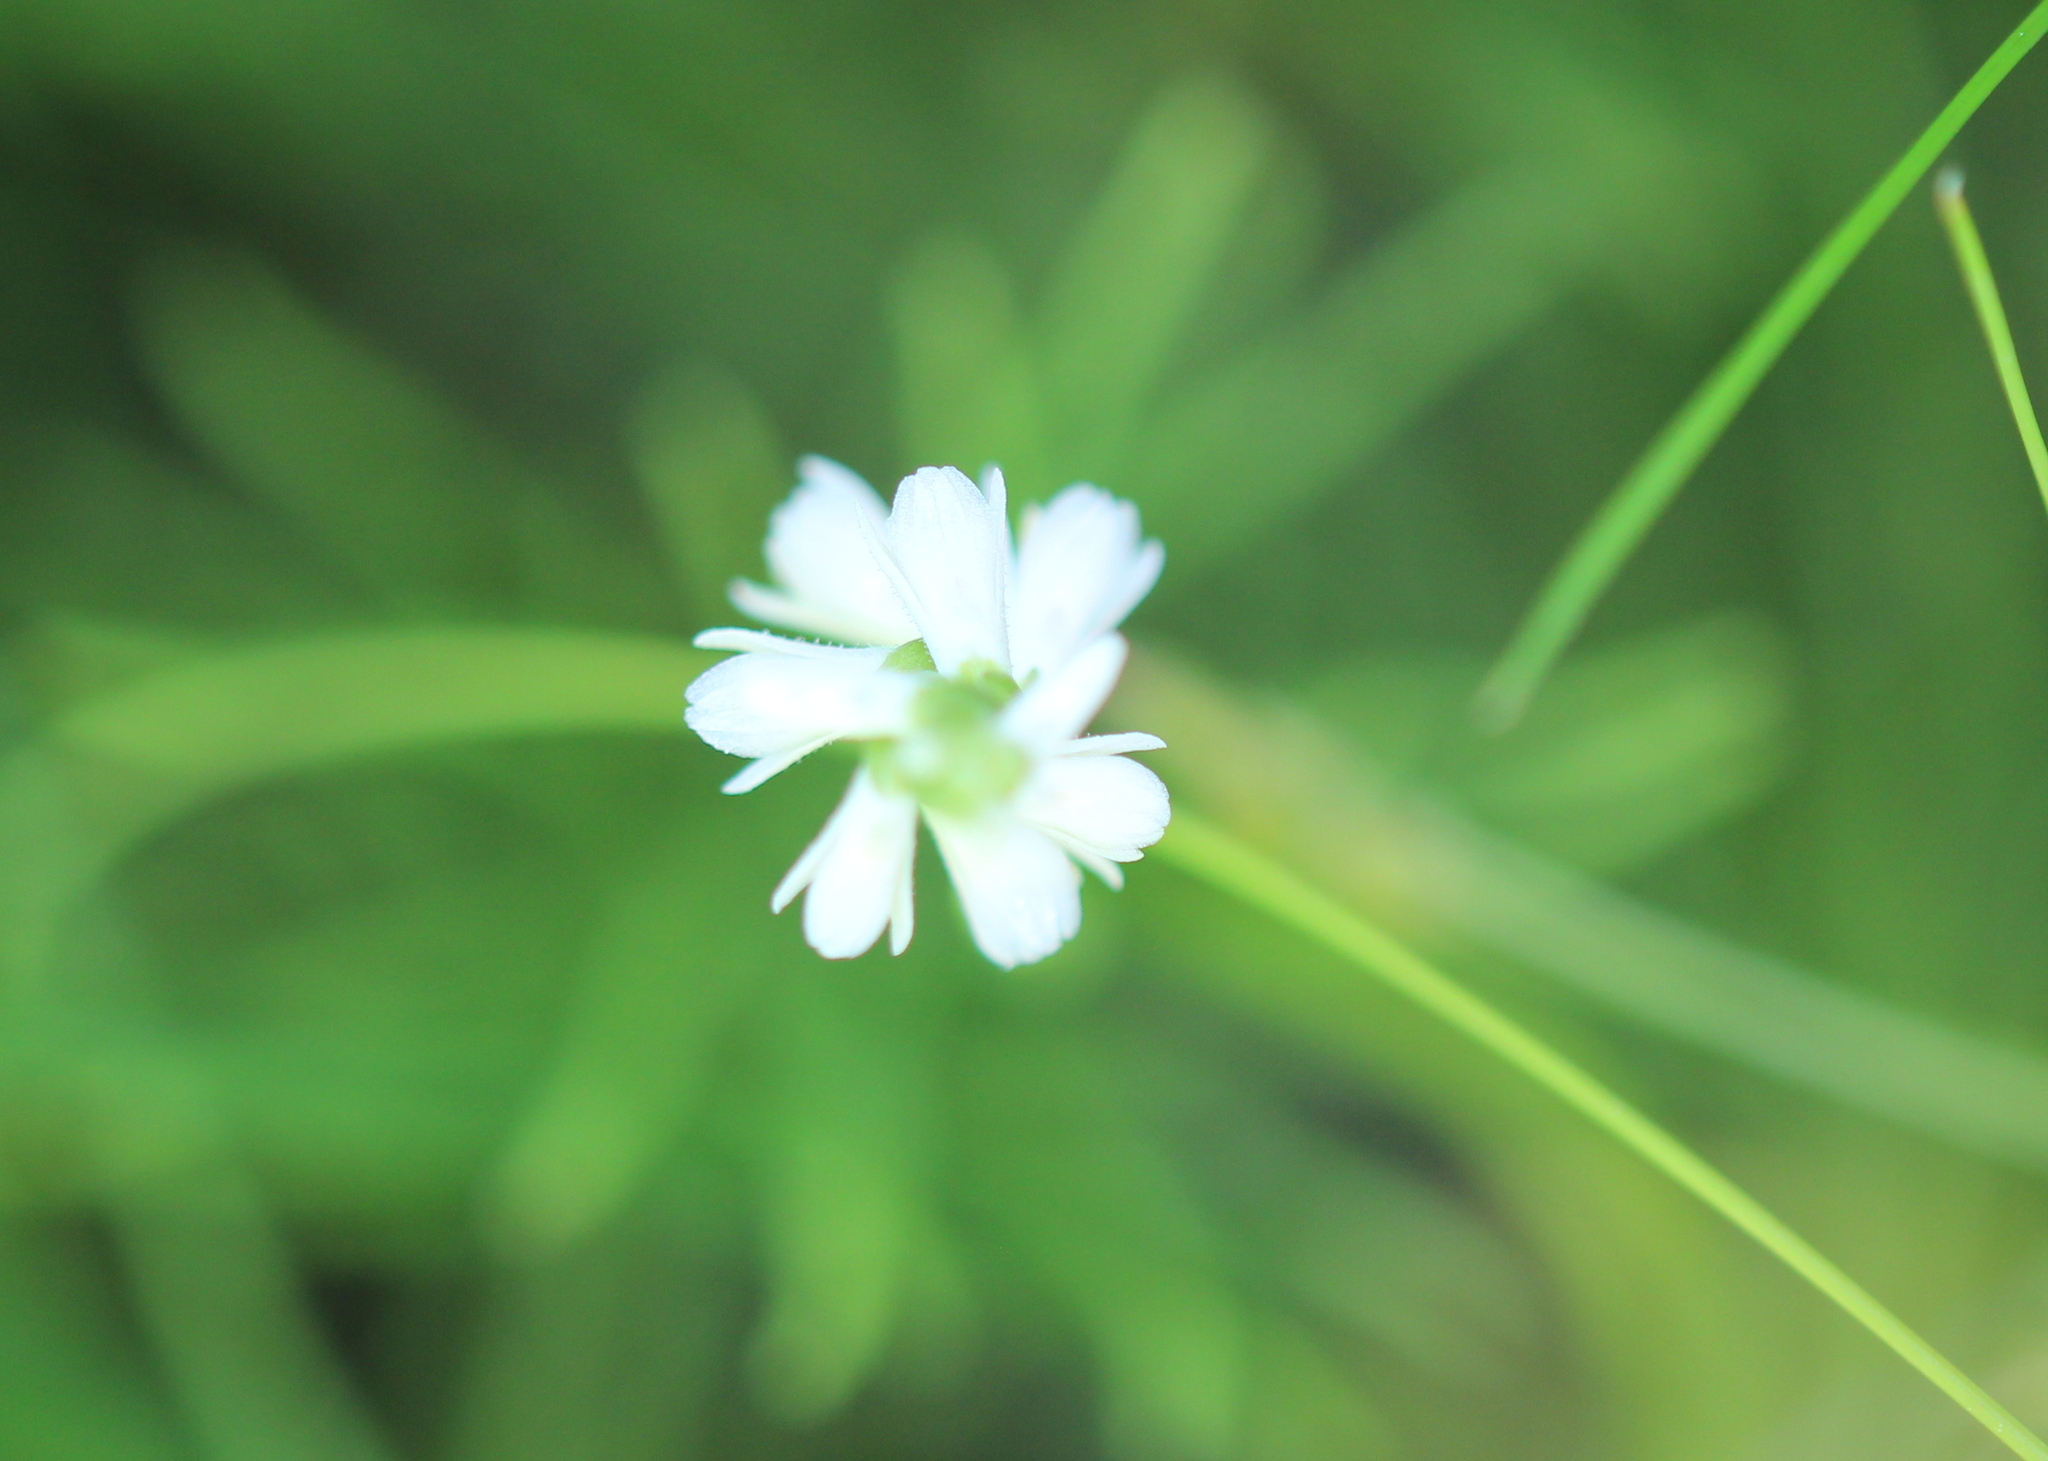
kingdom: Plantae
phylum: Tracheophyta
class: Liliopsida
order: Asparagales
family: Orchidaceae
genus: Spiranthes
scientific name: Spiranthes lucida
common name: Broad-leaved ladies'-tresses
